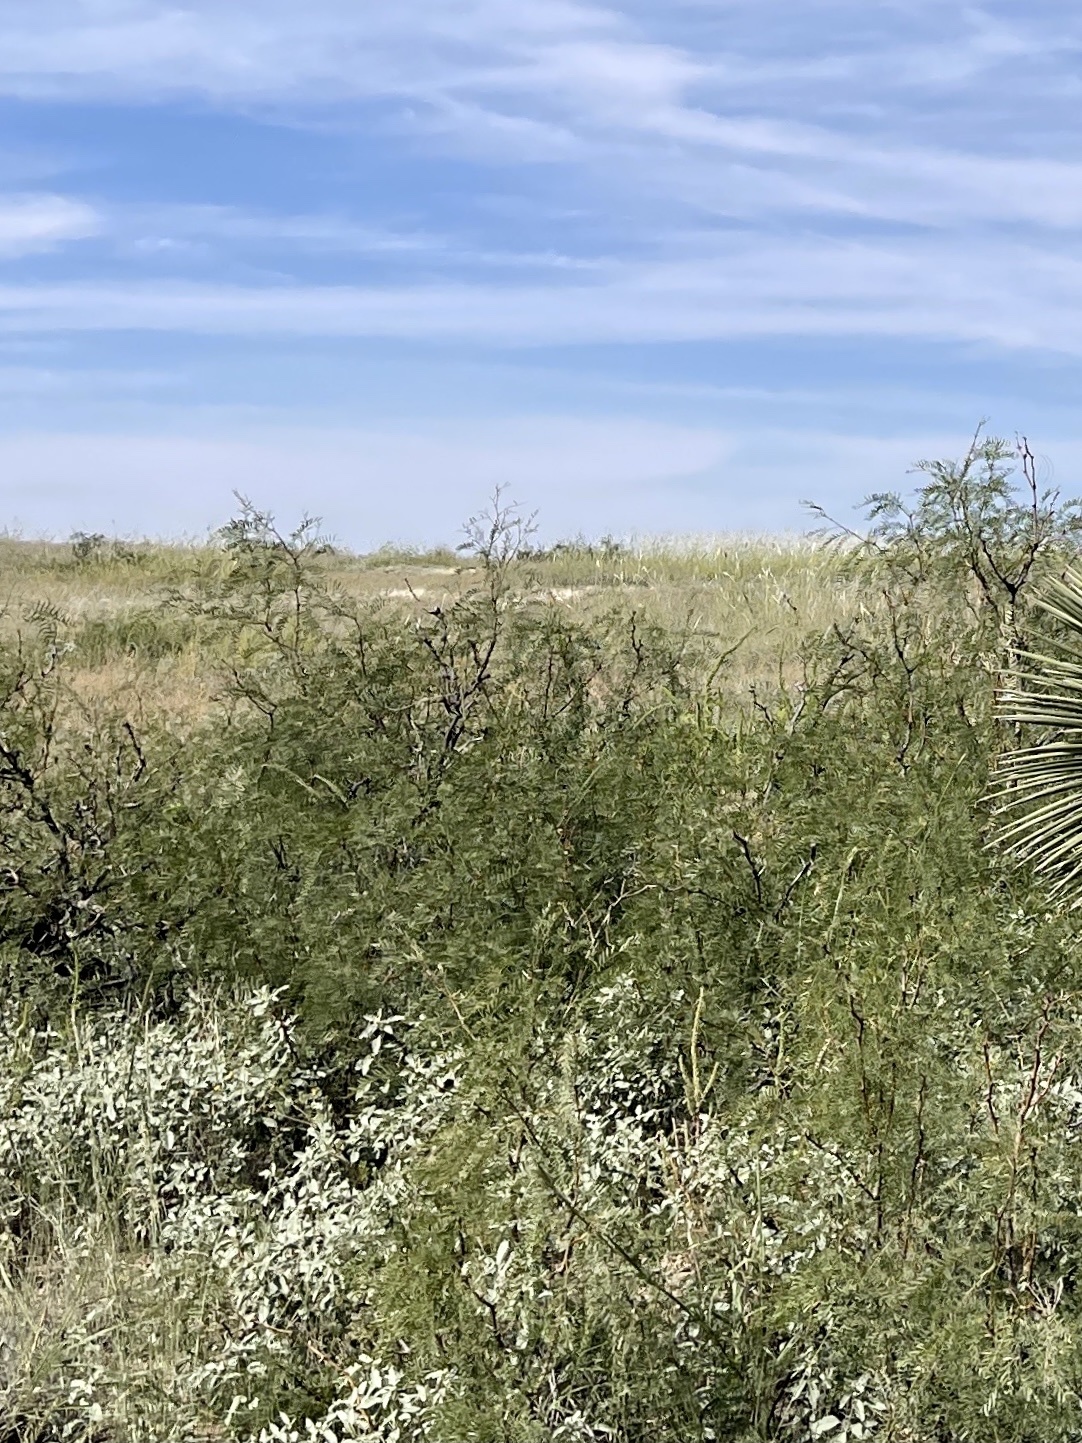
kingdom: Plantae
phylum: Tracheophyta
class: Magnoliopsida
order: Fabales
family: Fabaceae
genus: Prosopis
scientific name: Prosopis glandulosa
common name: Honey mesquite
